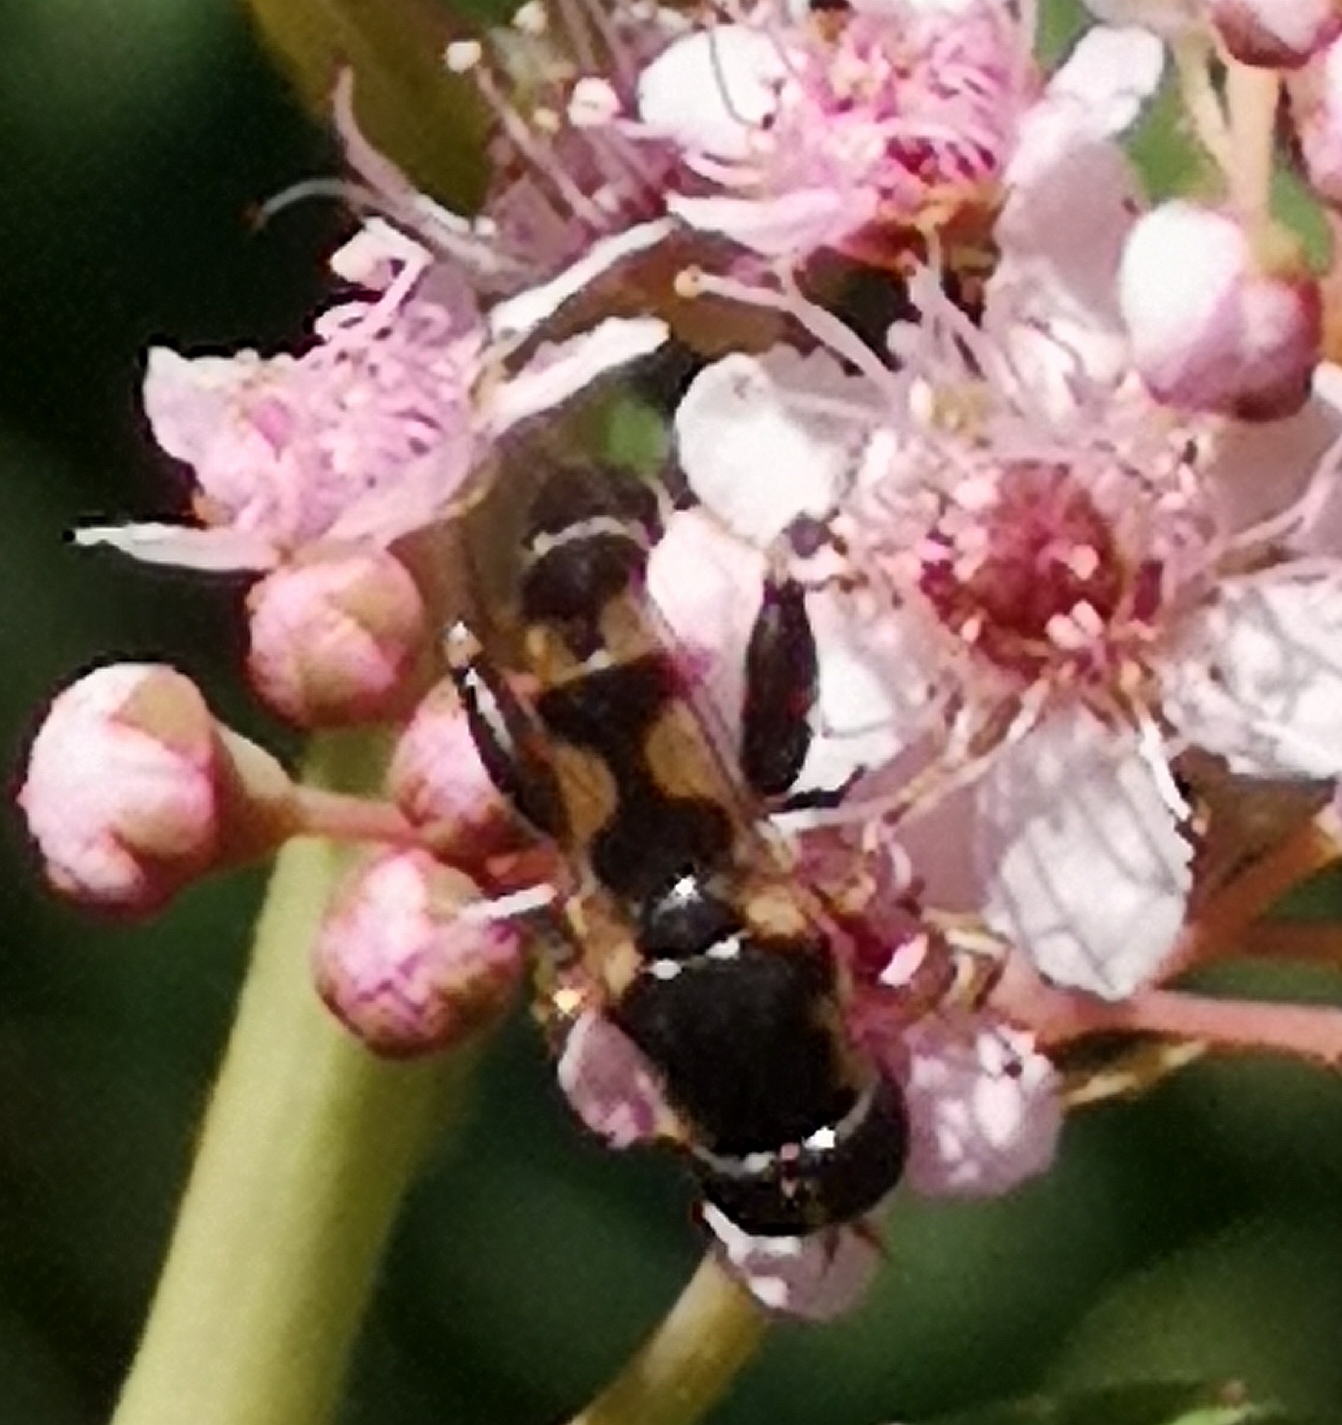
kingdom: Animalia
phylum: Arthropoda
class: Insecta
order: Diptera
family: Syrphidae
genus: Syritta
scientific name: Syritta pipiens
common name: Hover fly
